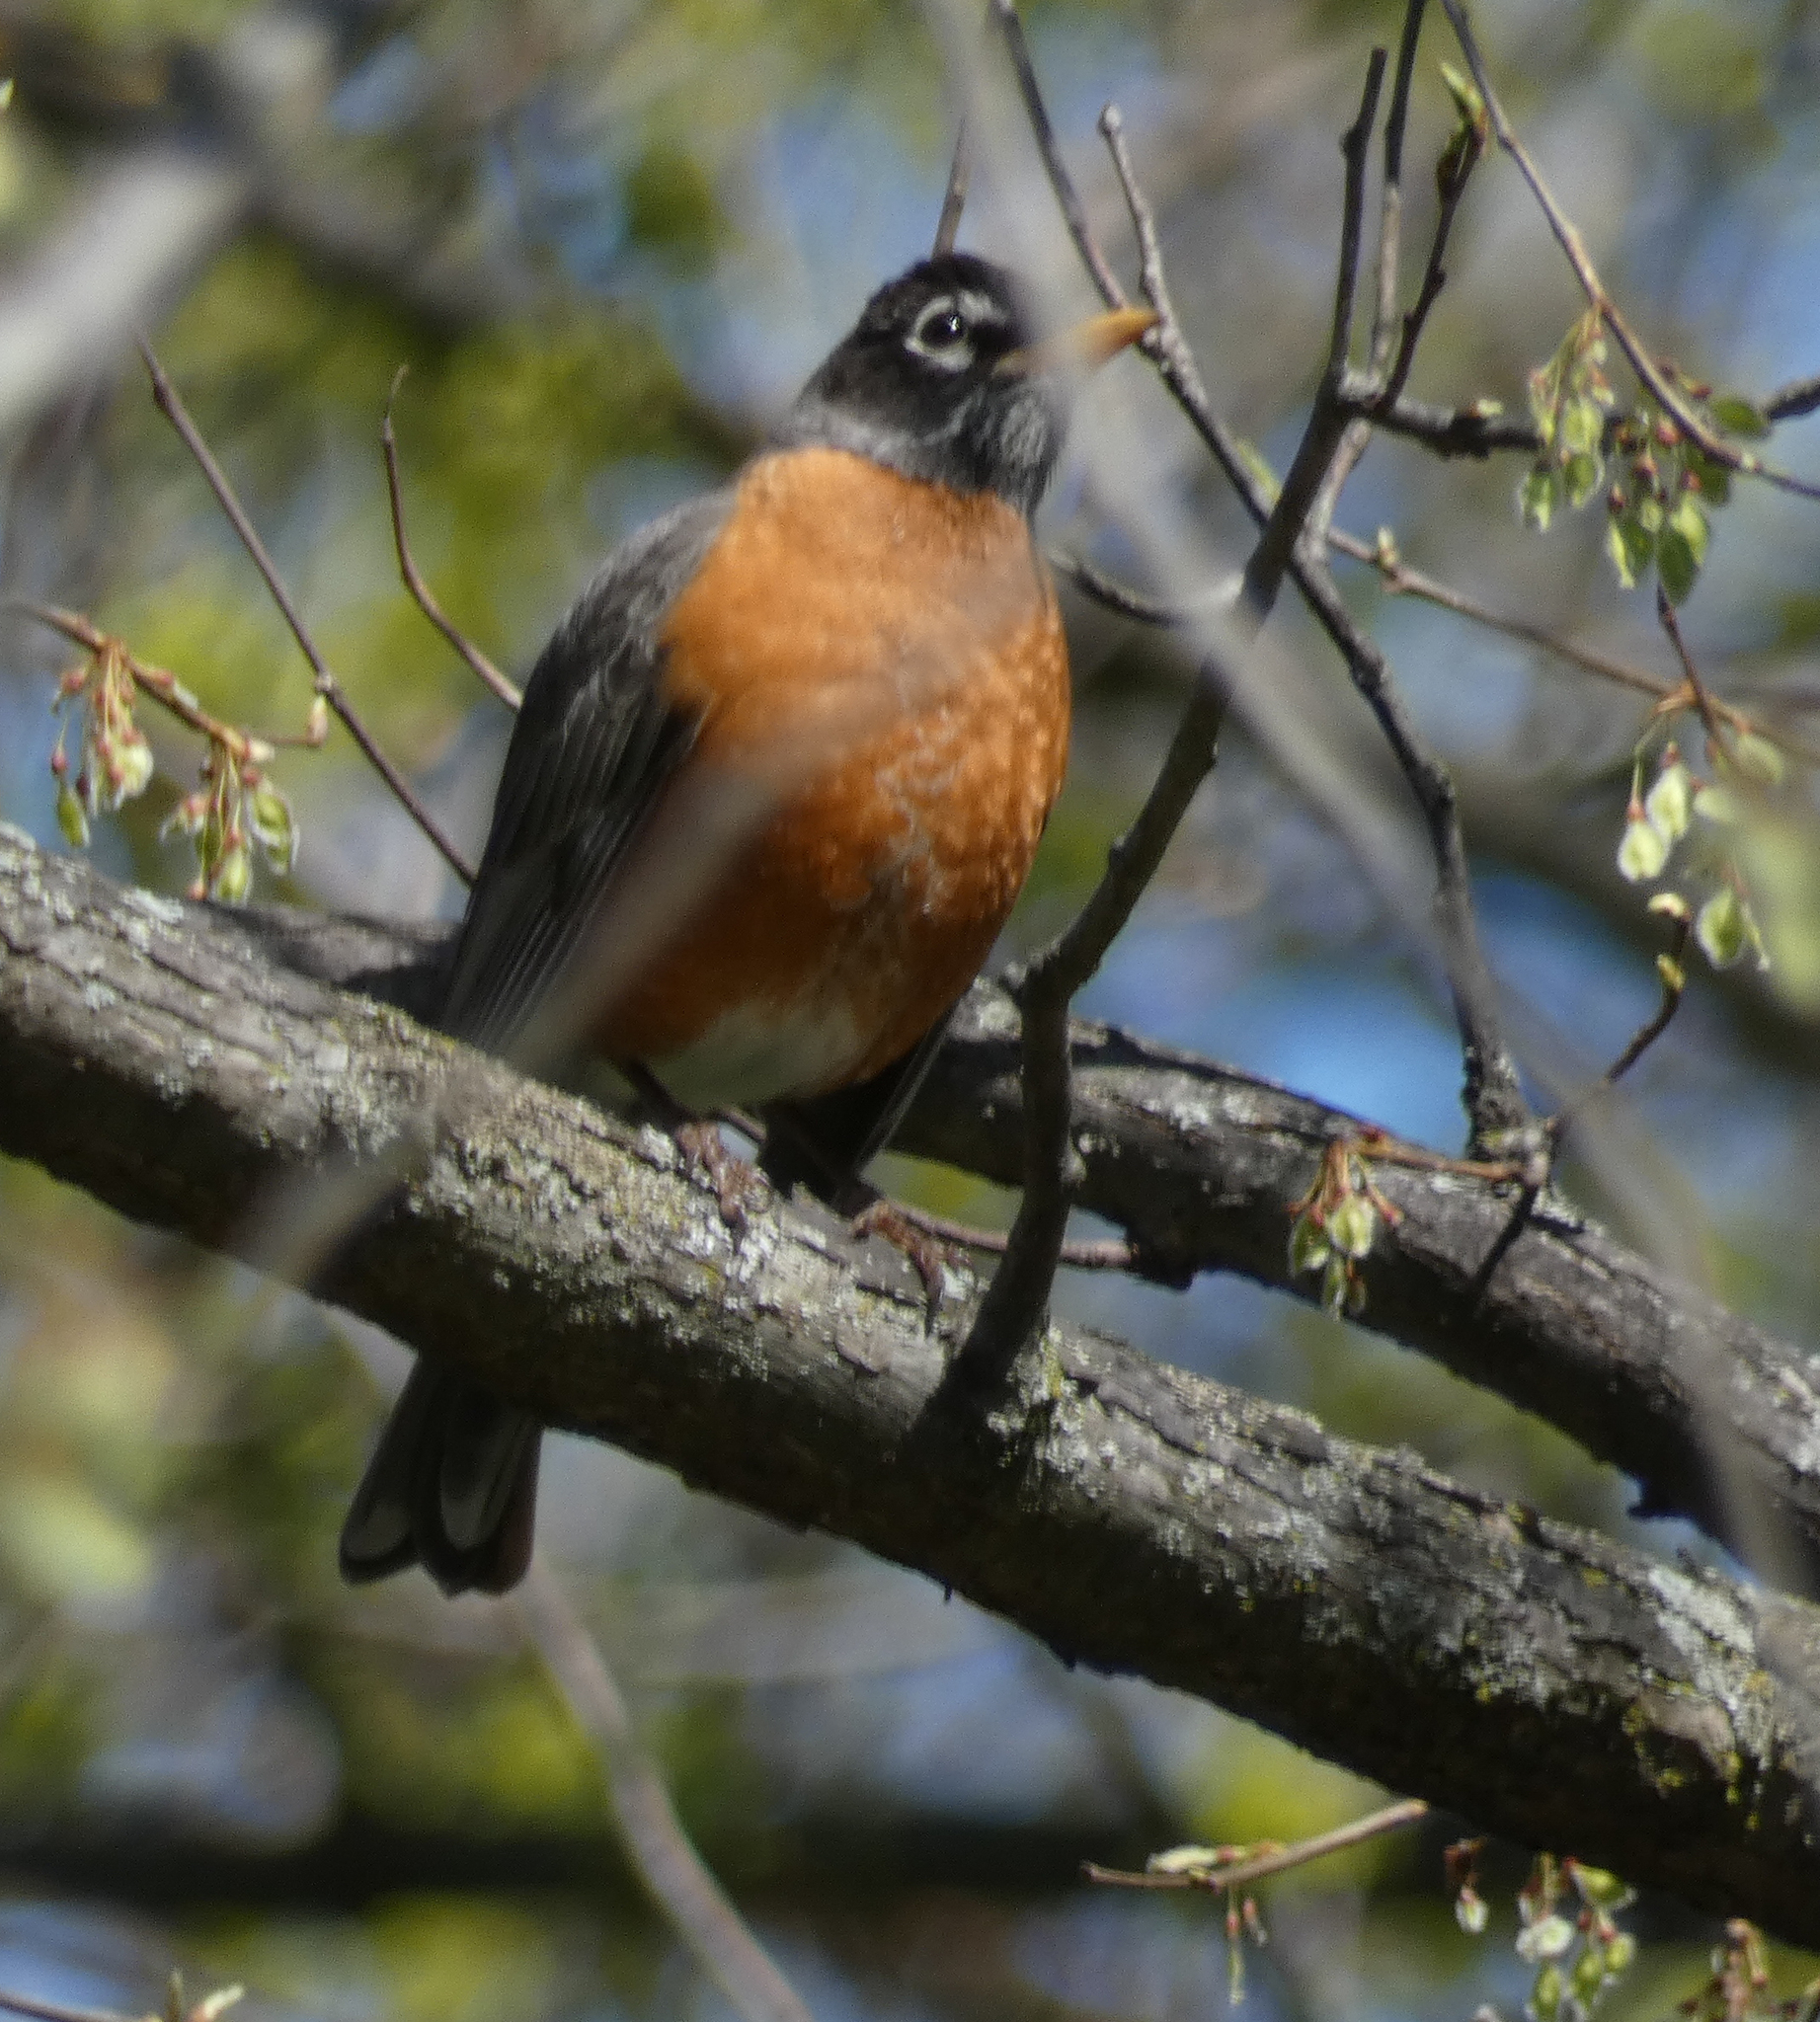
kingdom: Animalia
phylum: Chordata
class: Aves
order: Passeriformes
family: Turdidae
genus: Turdus
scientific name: Turdus migratorius
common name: American robin
